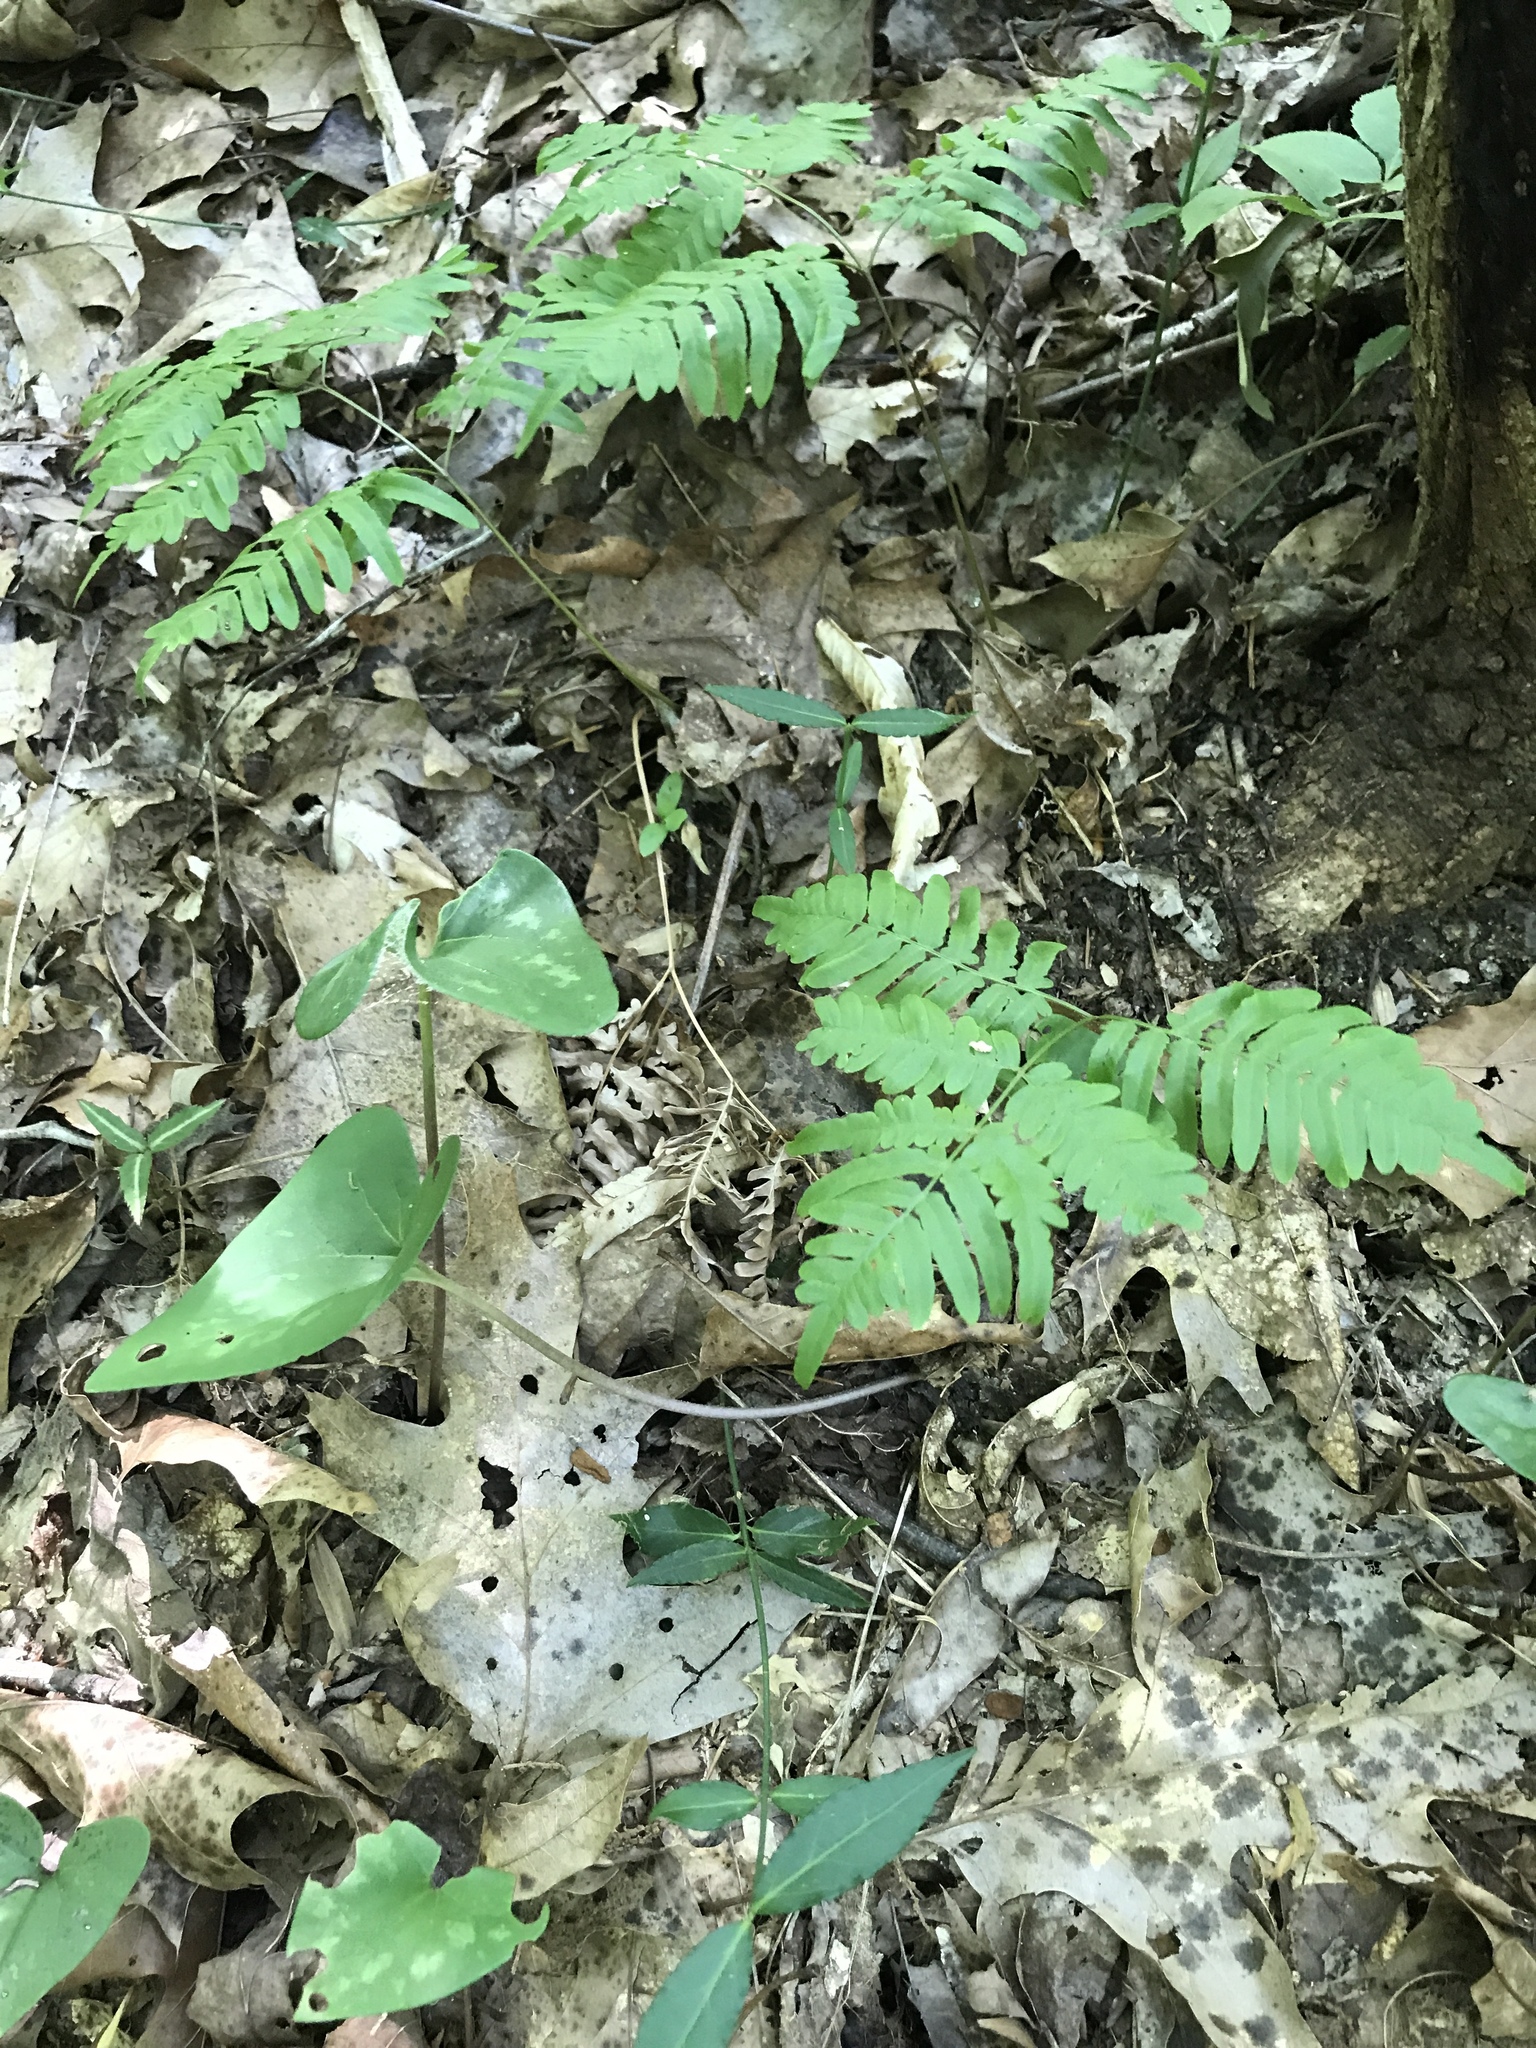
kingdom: Plantae
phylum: Tracheophyta
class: Polypodiopsida
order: Polypodiales
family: Dennstaedtiaceae
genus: Pteridium
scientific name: Pteridium aquilinum
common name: Bracken
